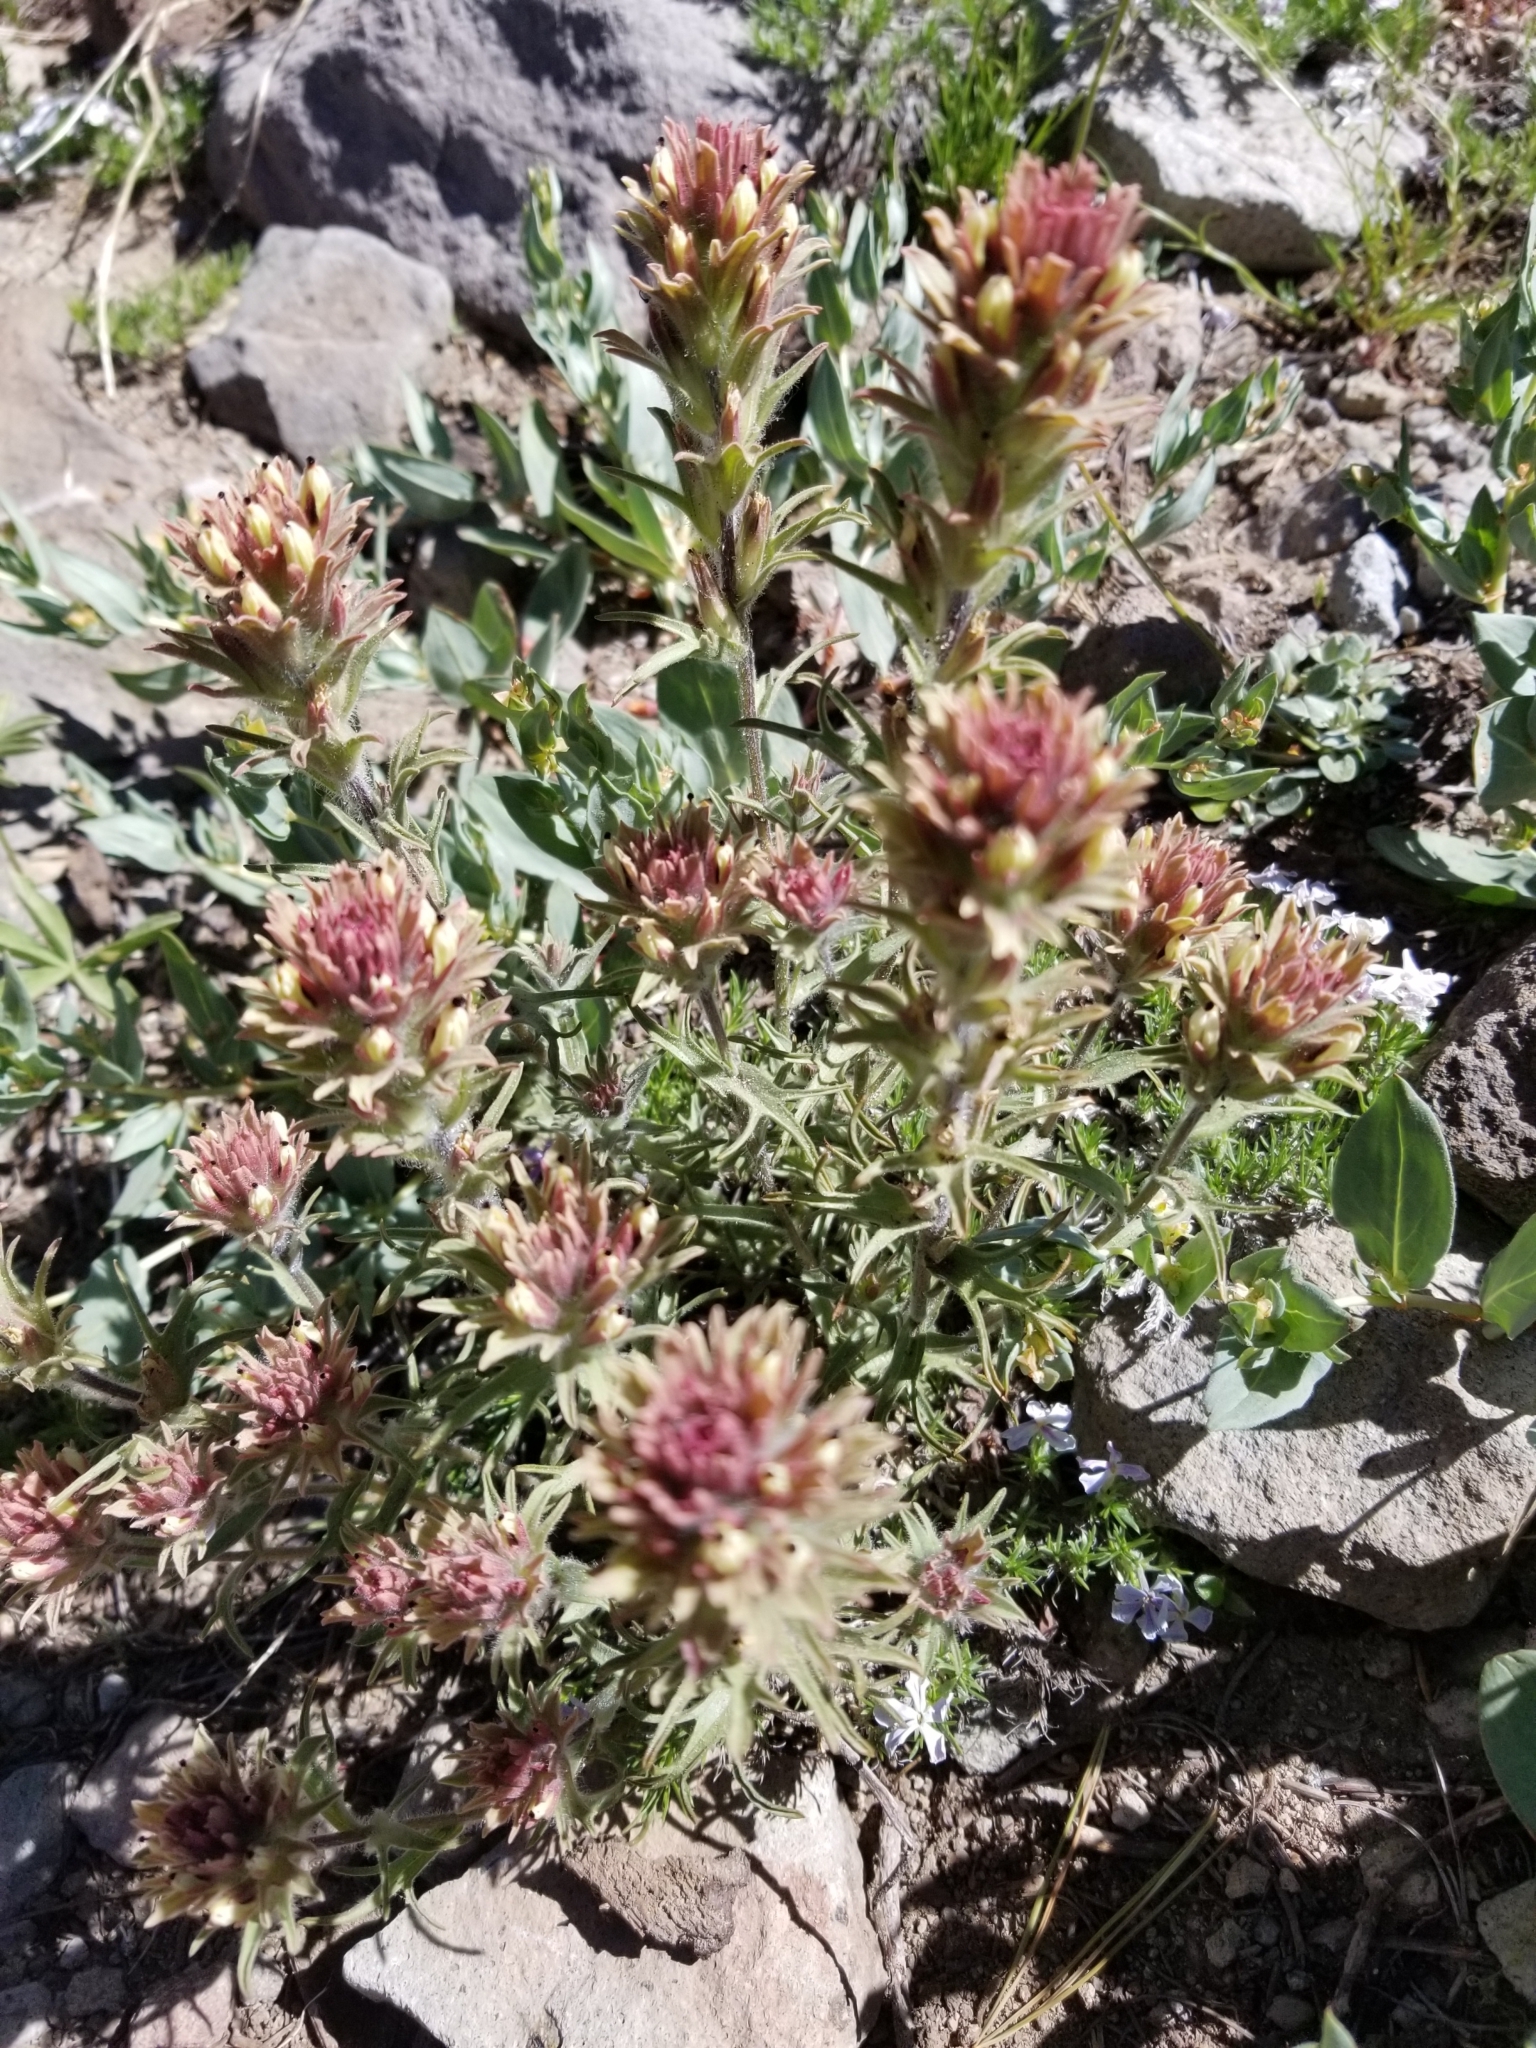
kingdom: Plantae
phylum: Tracheophyta
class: Magnoliopsida
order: Lamiales
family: Orobanchaceae
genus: Castilleja
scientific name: Castilleja nana
